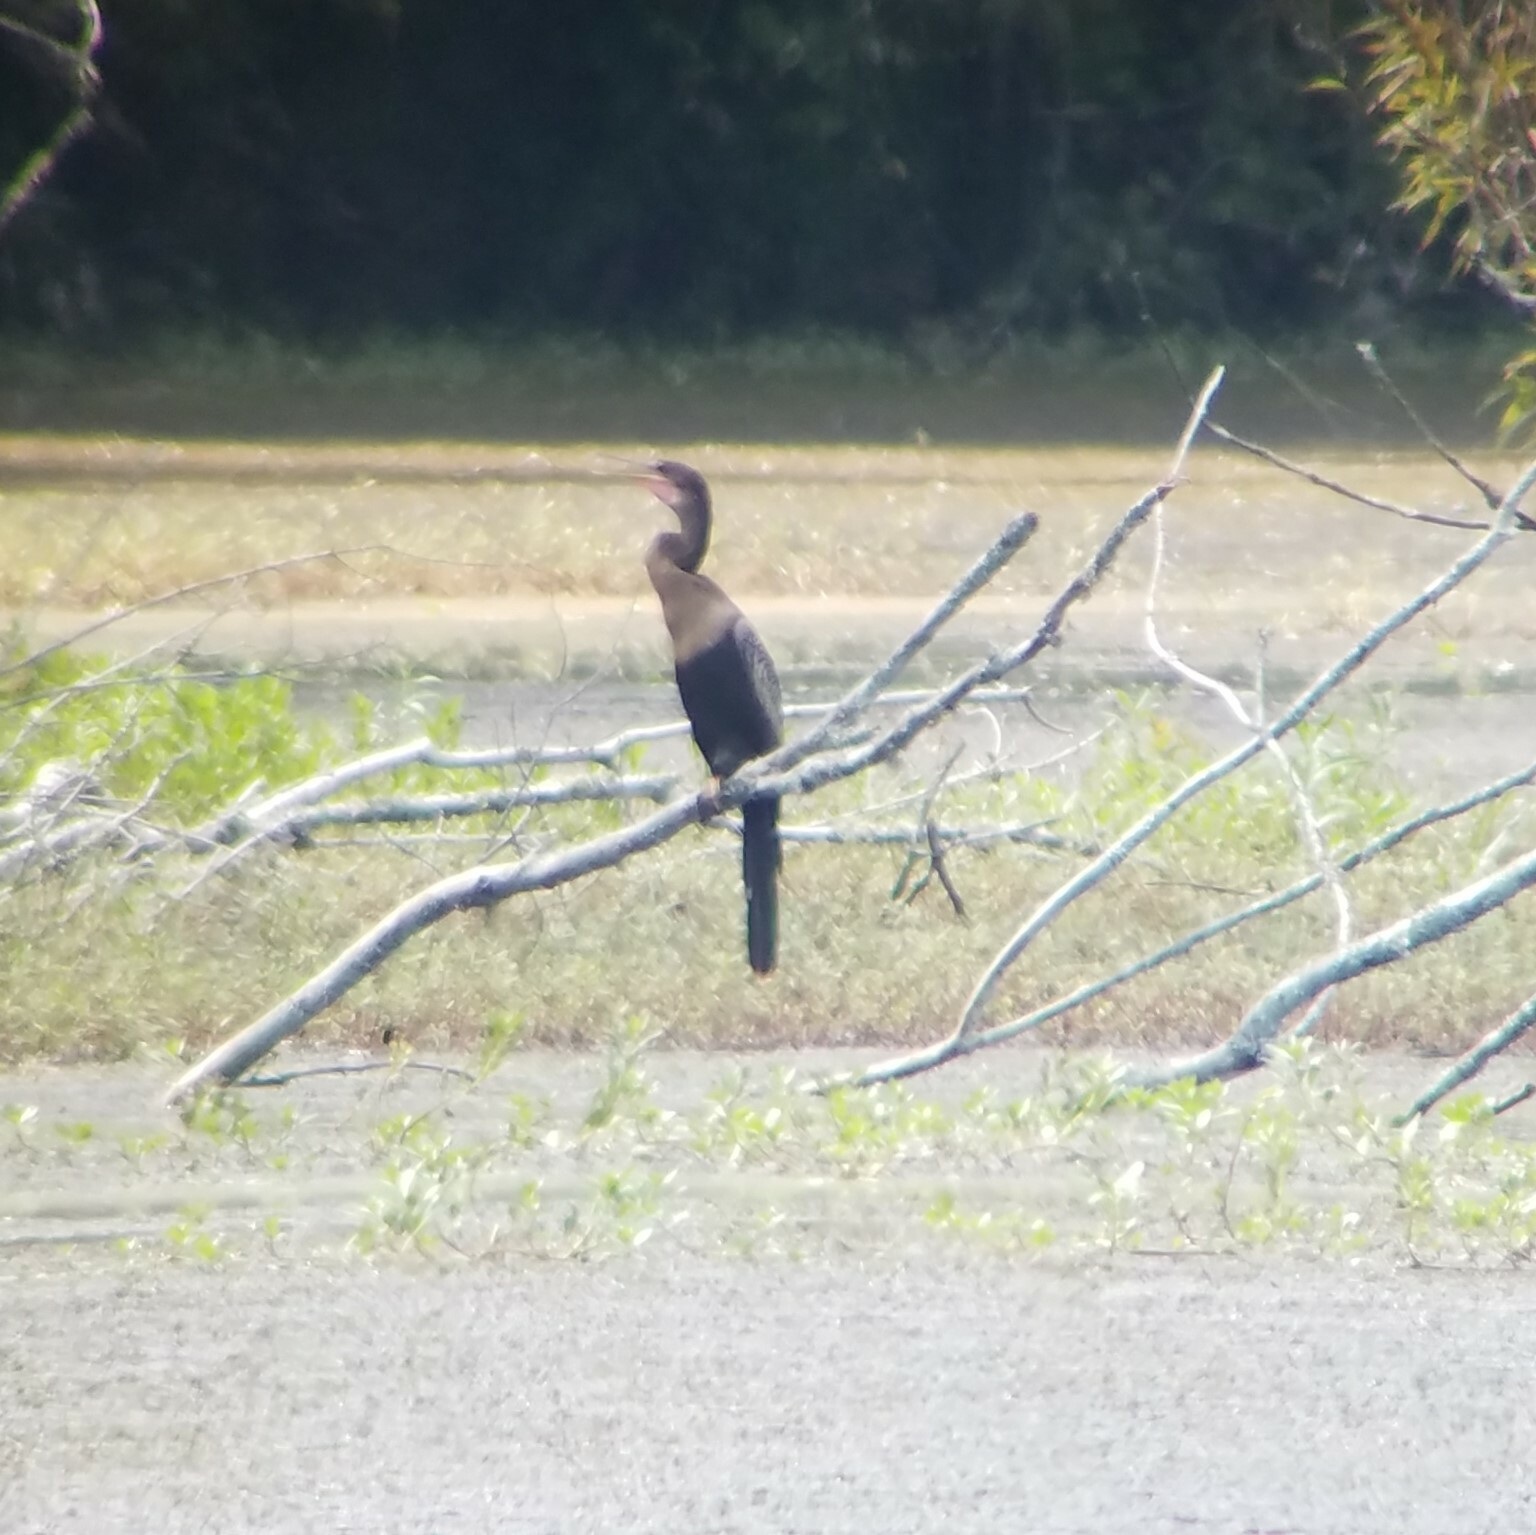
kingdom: Animalia
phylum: Chordata
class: Aves
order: Suliformes
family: Anhingidae
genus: Anhinga
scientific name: Anhinga anhinga
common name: Anhinga
